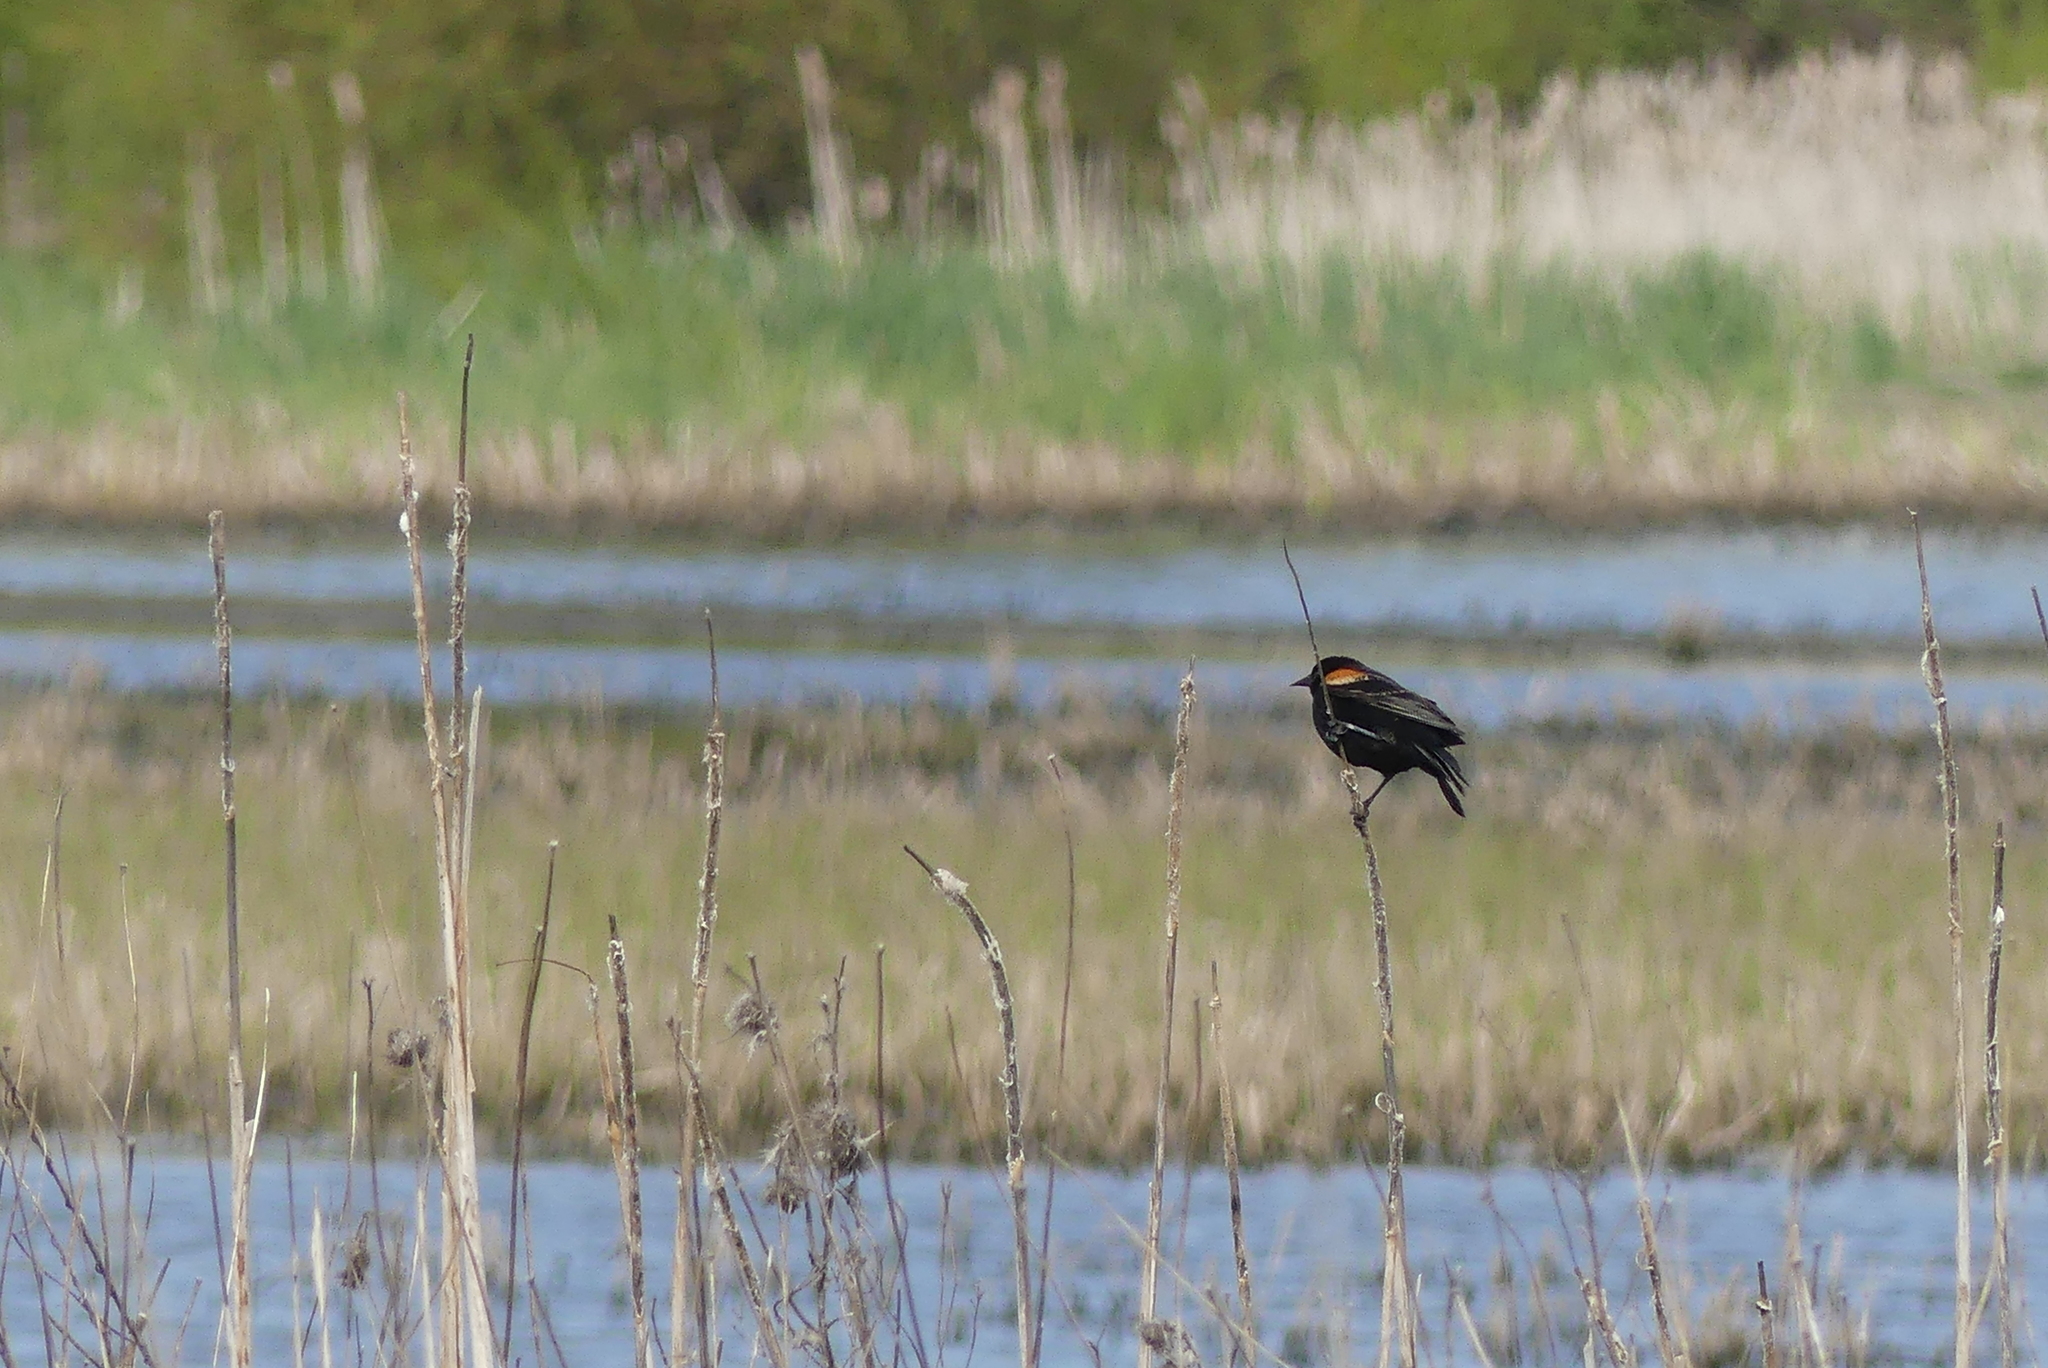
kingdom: Animalia
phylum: Chordata
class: Aves
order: Passeriformes
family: Icteridae
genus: Agelaius
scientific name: Agelaius phoeniceus
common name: Red-winged blackbird
